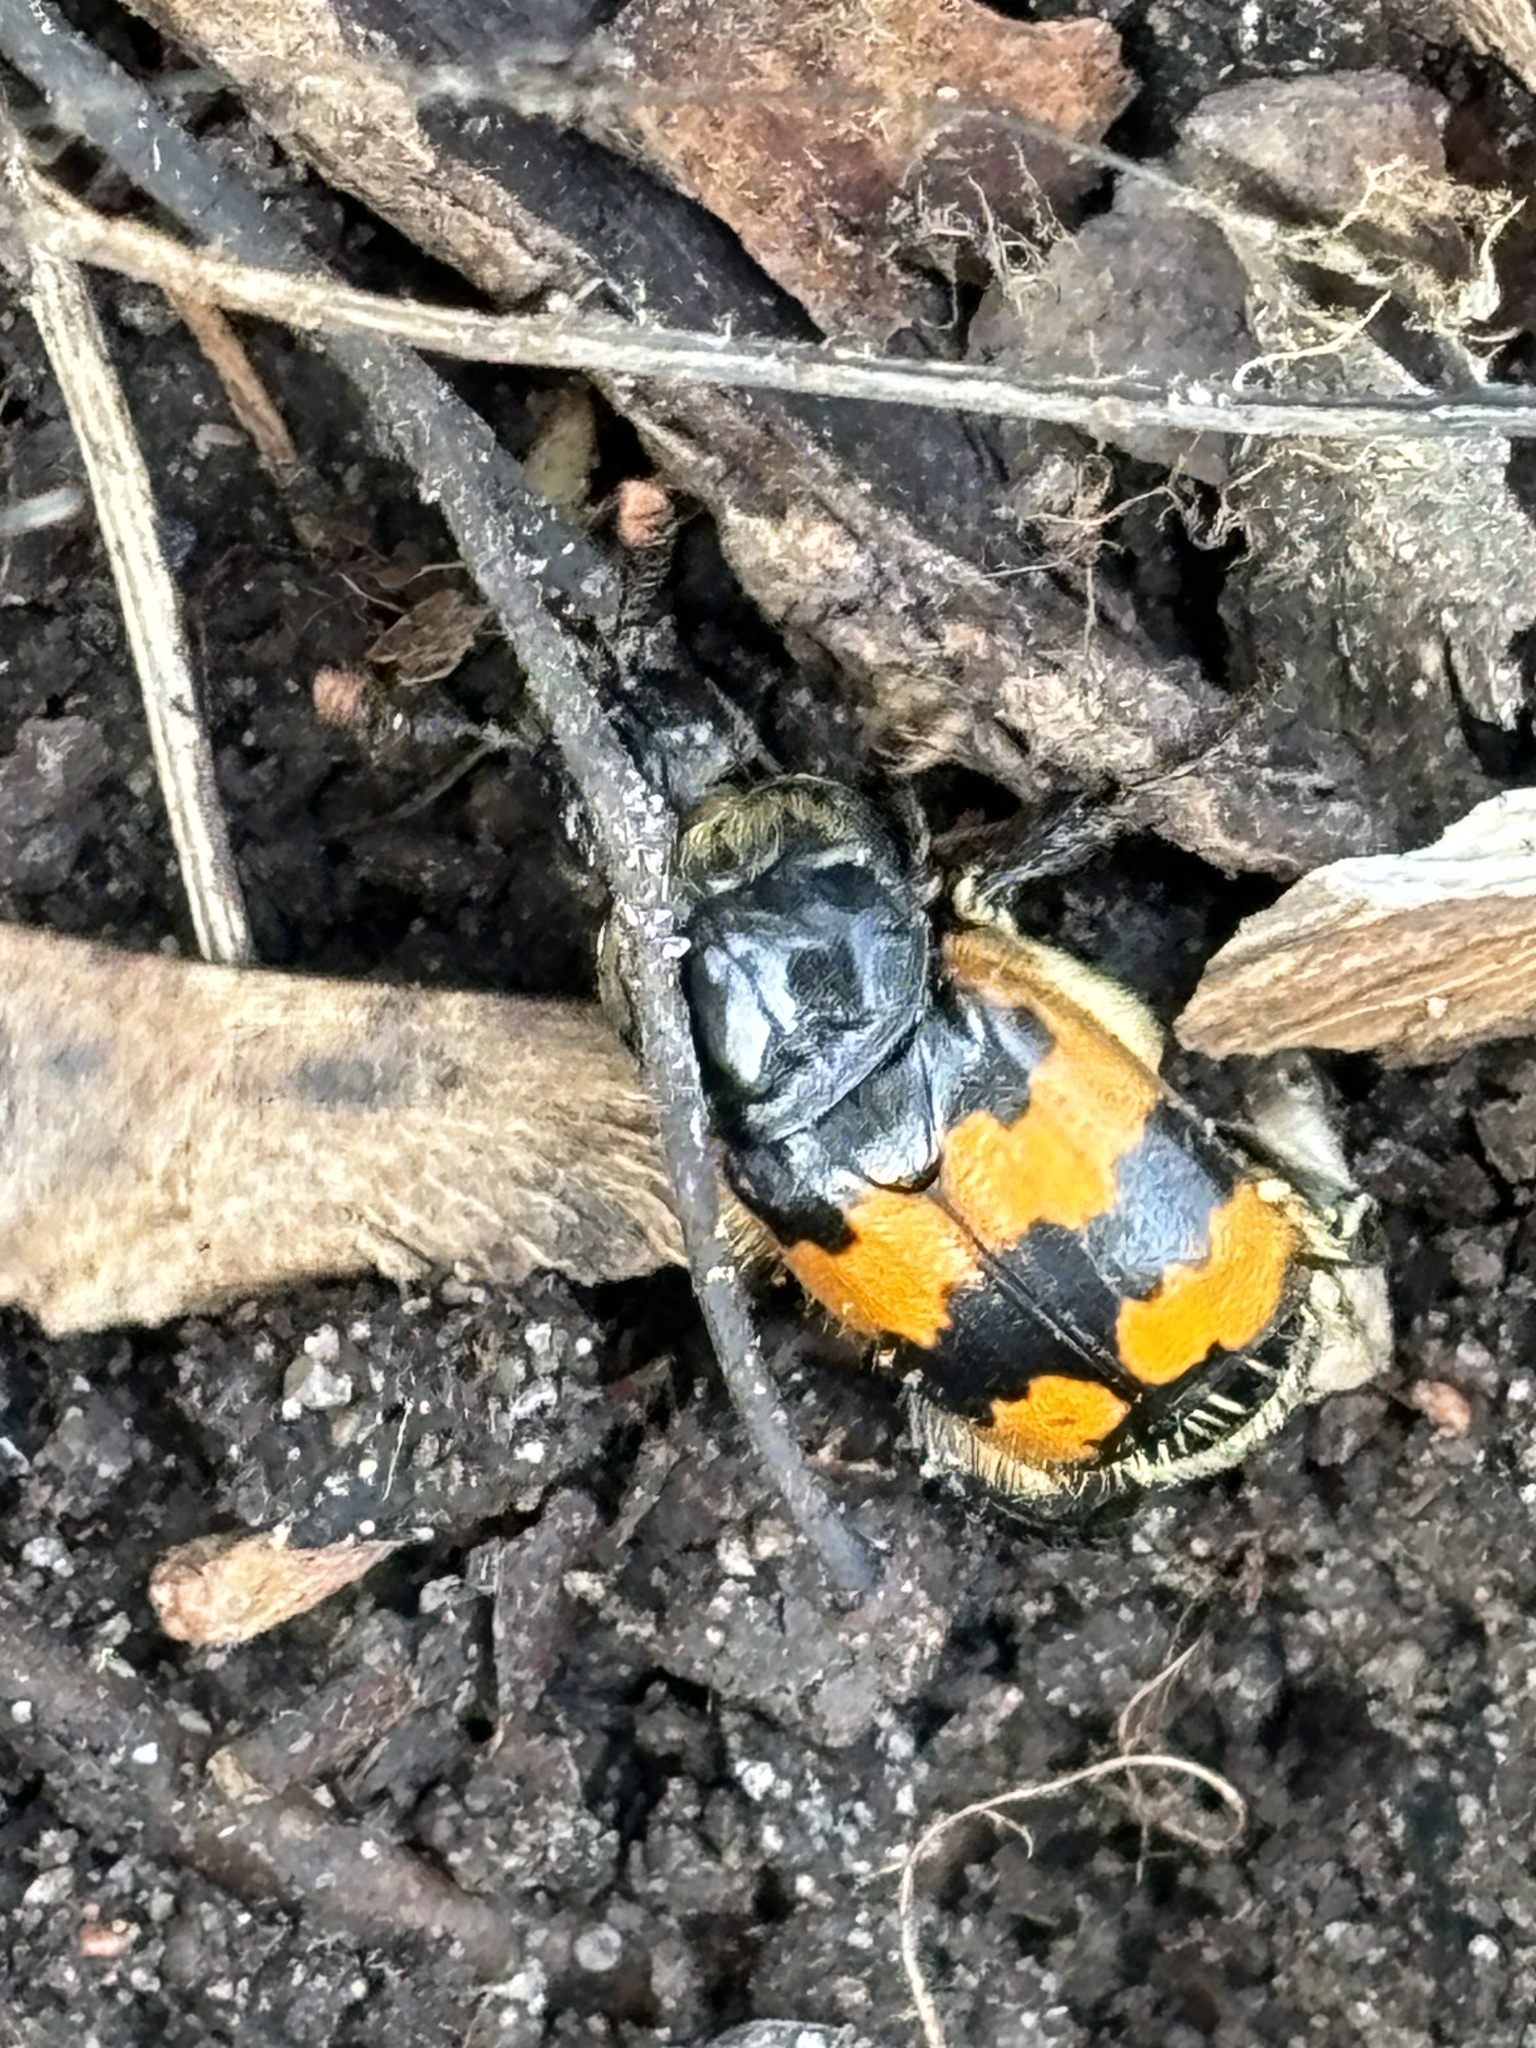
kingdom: Animalia
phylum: Arthropoda
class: Insecta
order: Coleoptera
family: Staphylinidae
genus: Nicrophorus
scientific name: Nicrophorus vespillo
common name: Common burying beetle
